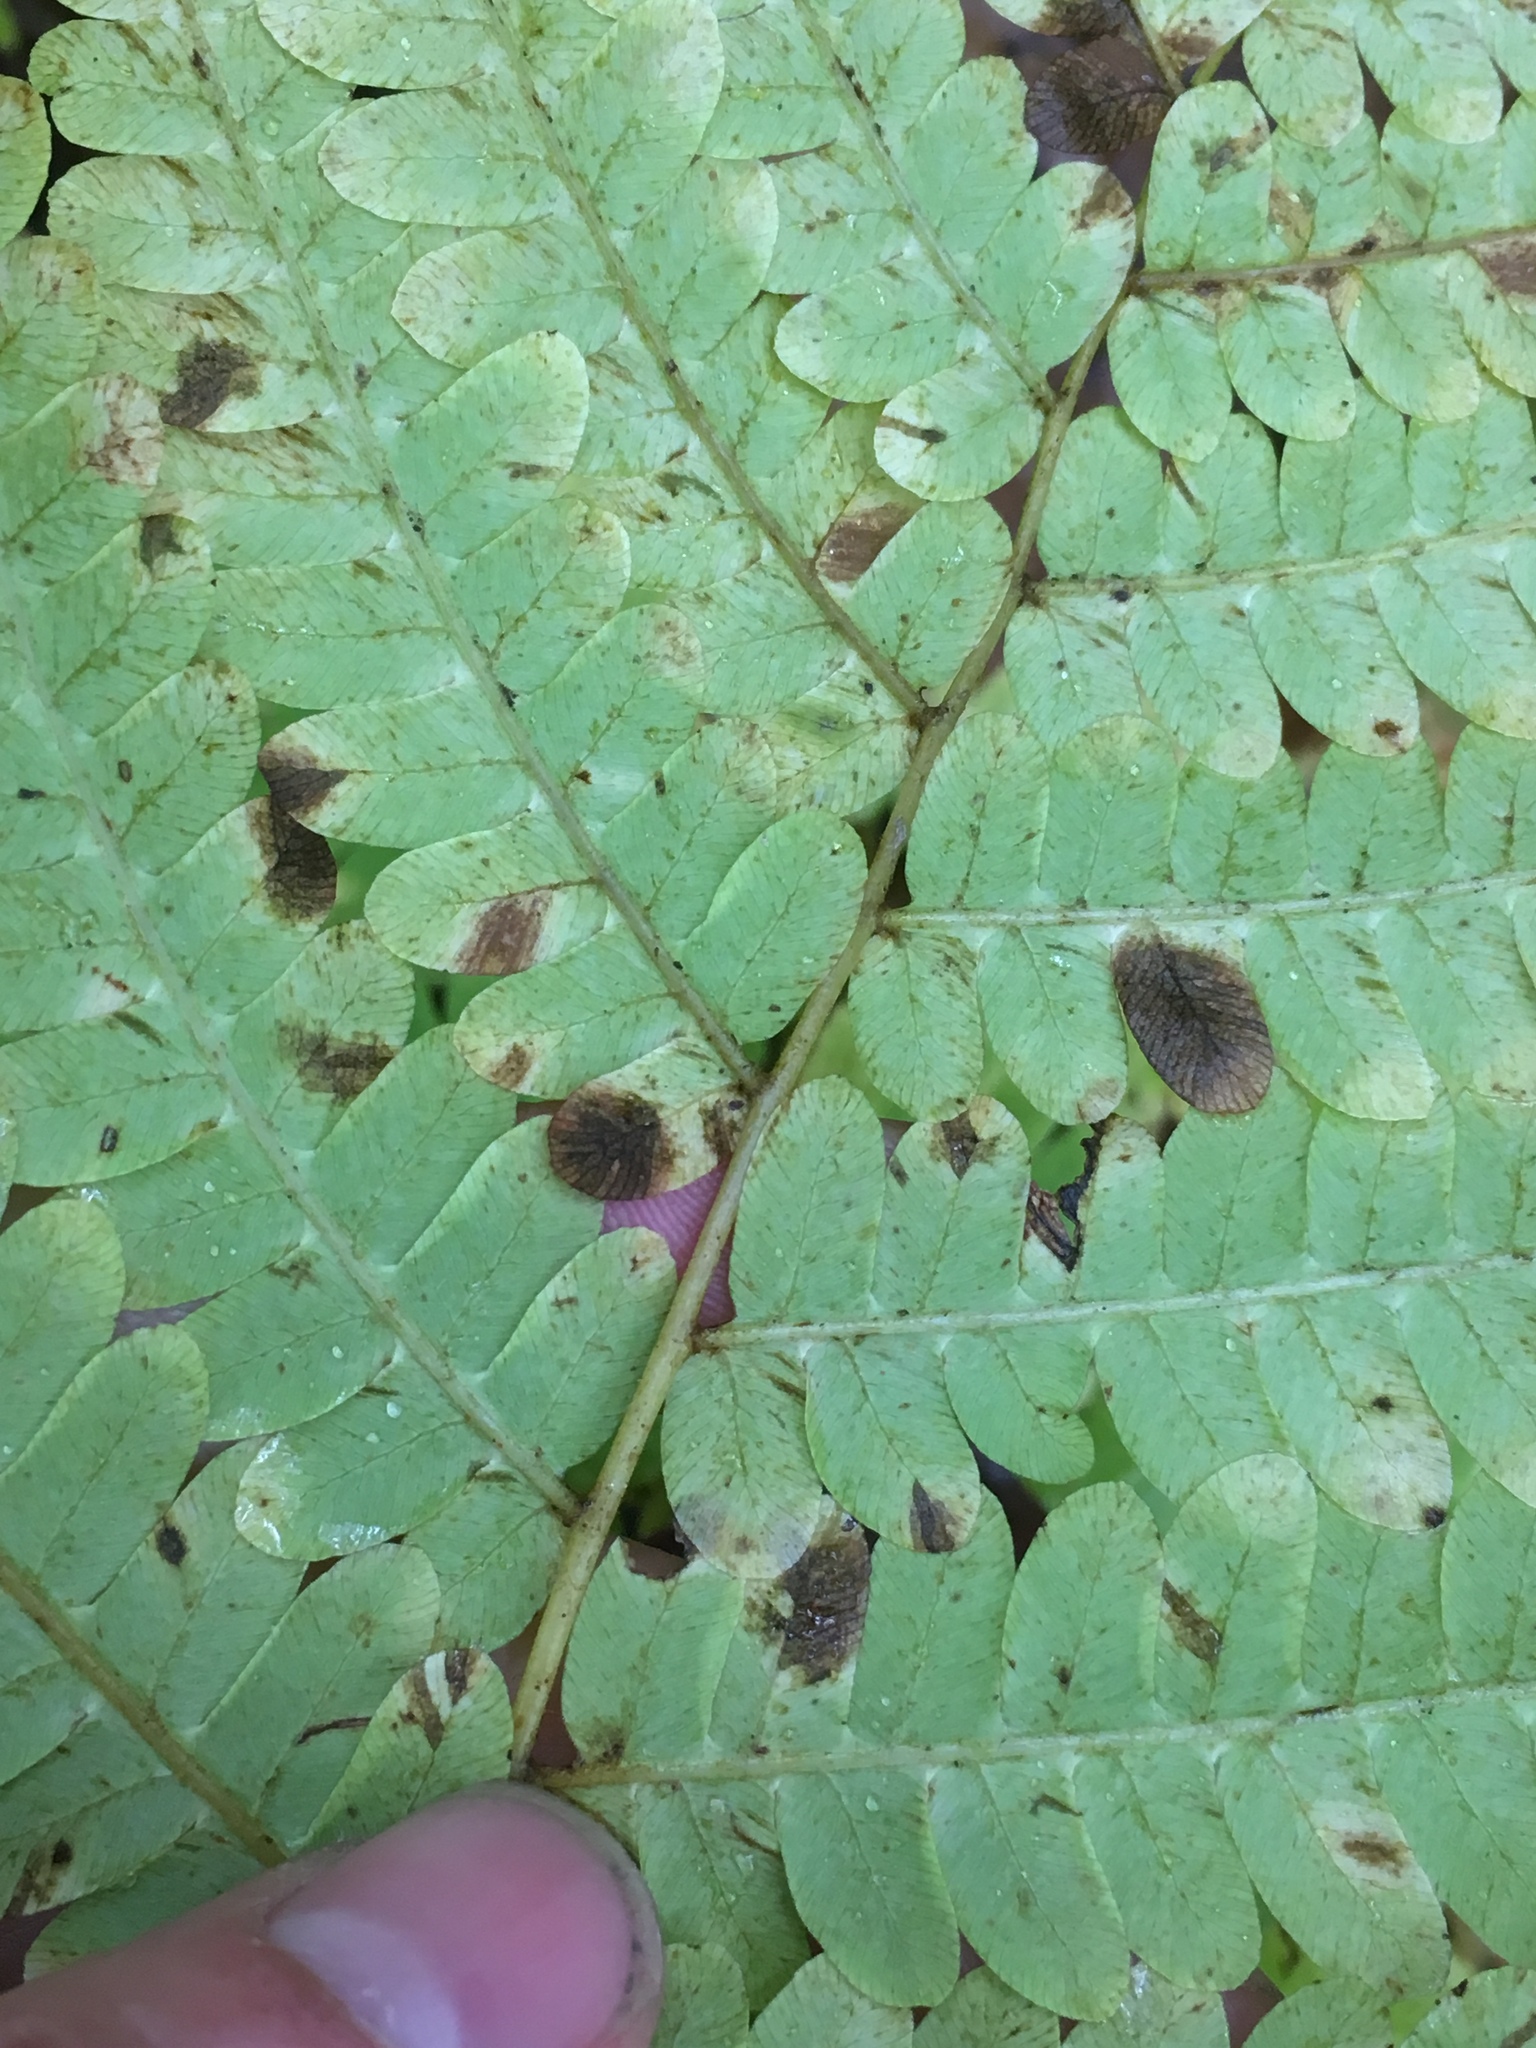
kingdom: Plantae
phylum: Tracheophyta
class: Polypodiopsida
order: Osmundales
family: Osmundaceae
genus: Claytosmunda
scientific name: Claytosmunda claytoniana
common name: Clayton's fern
